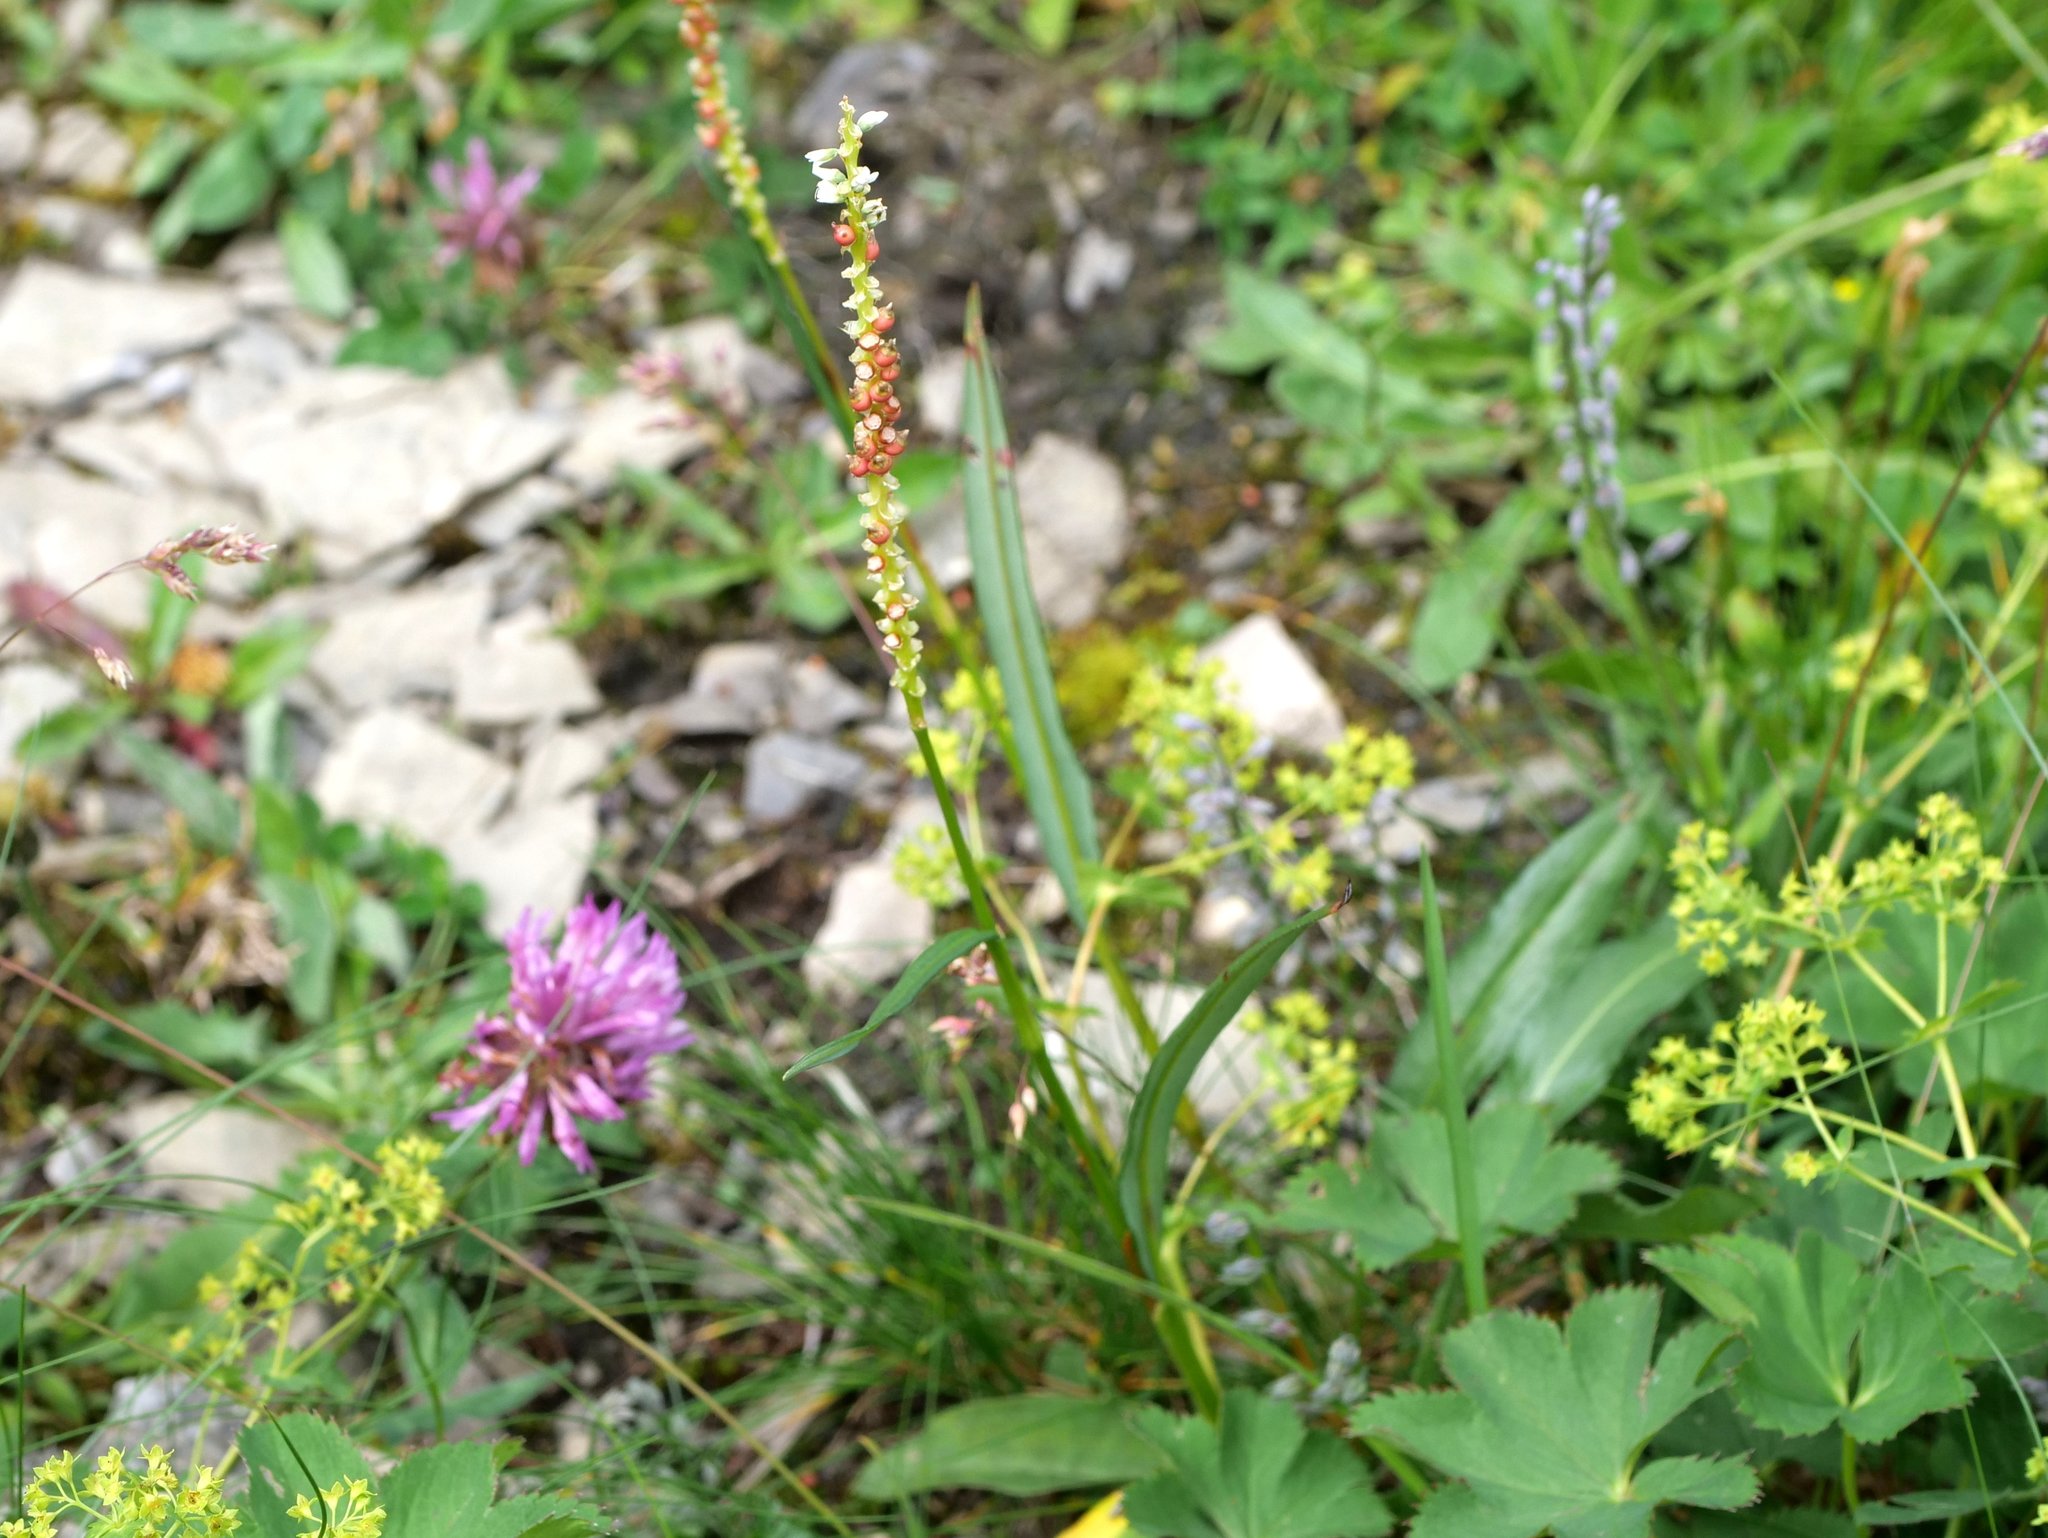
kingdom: Plantae
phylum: Tracheophyta
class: Magnoliopsida
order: Caryophyllales
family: Polygonaceae
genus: Bistorta
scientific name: Bistorta vivipara
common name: Alpine bistort
